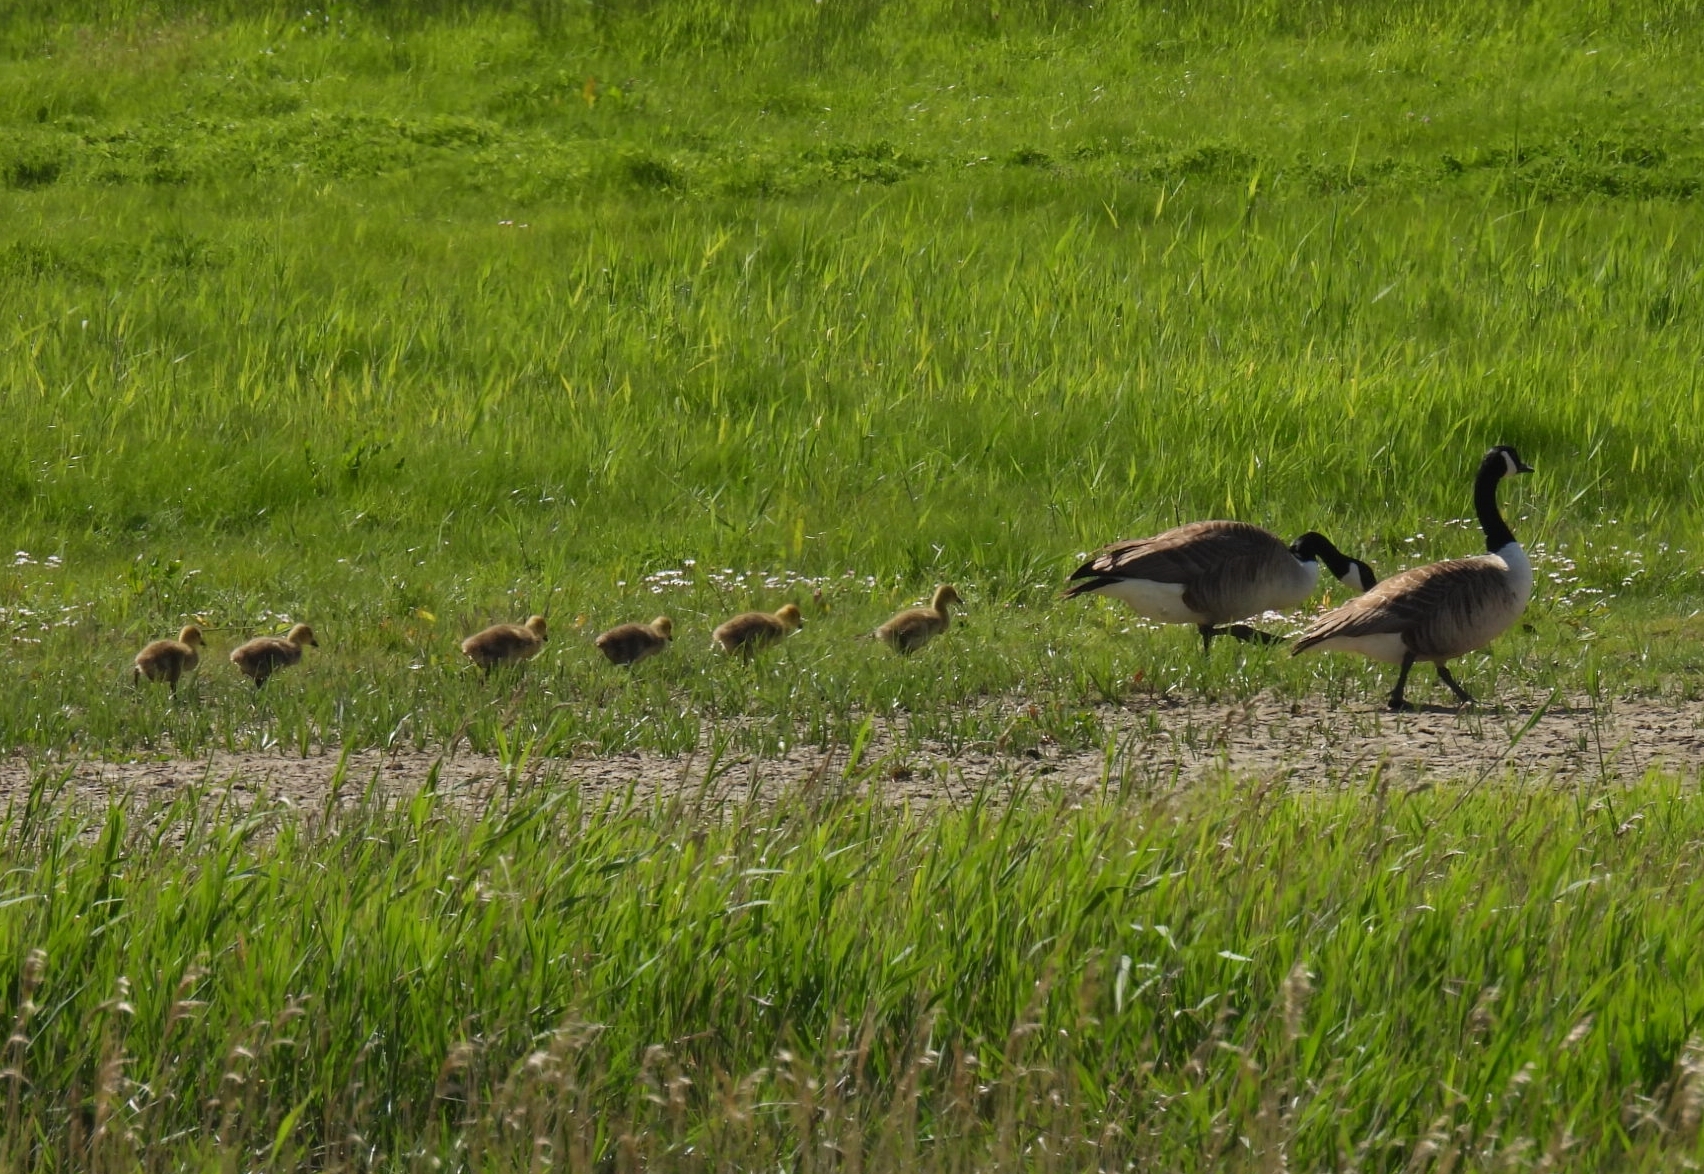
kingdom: Animalia
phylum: Chordata
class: Aves
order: Anseriformes
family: Anatidae
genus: Branta
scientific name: Branta canadensis
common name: Canada goose
